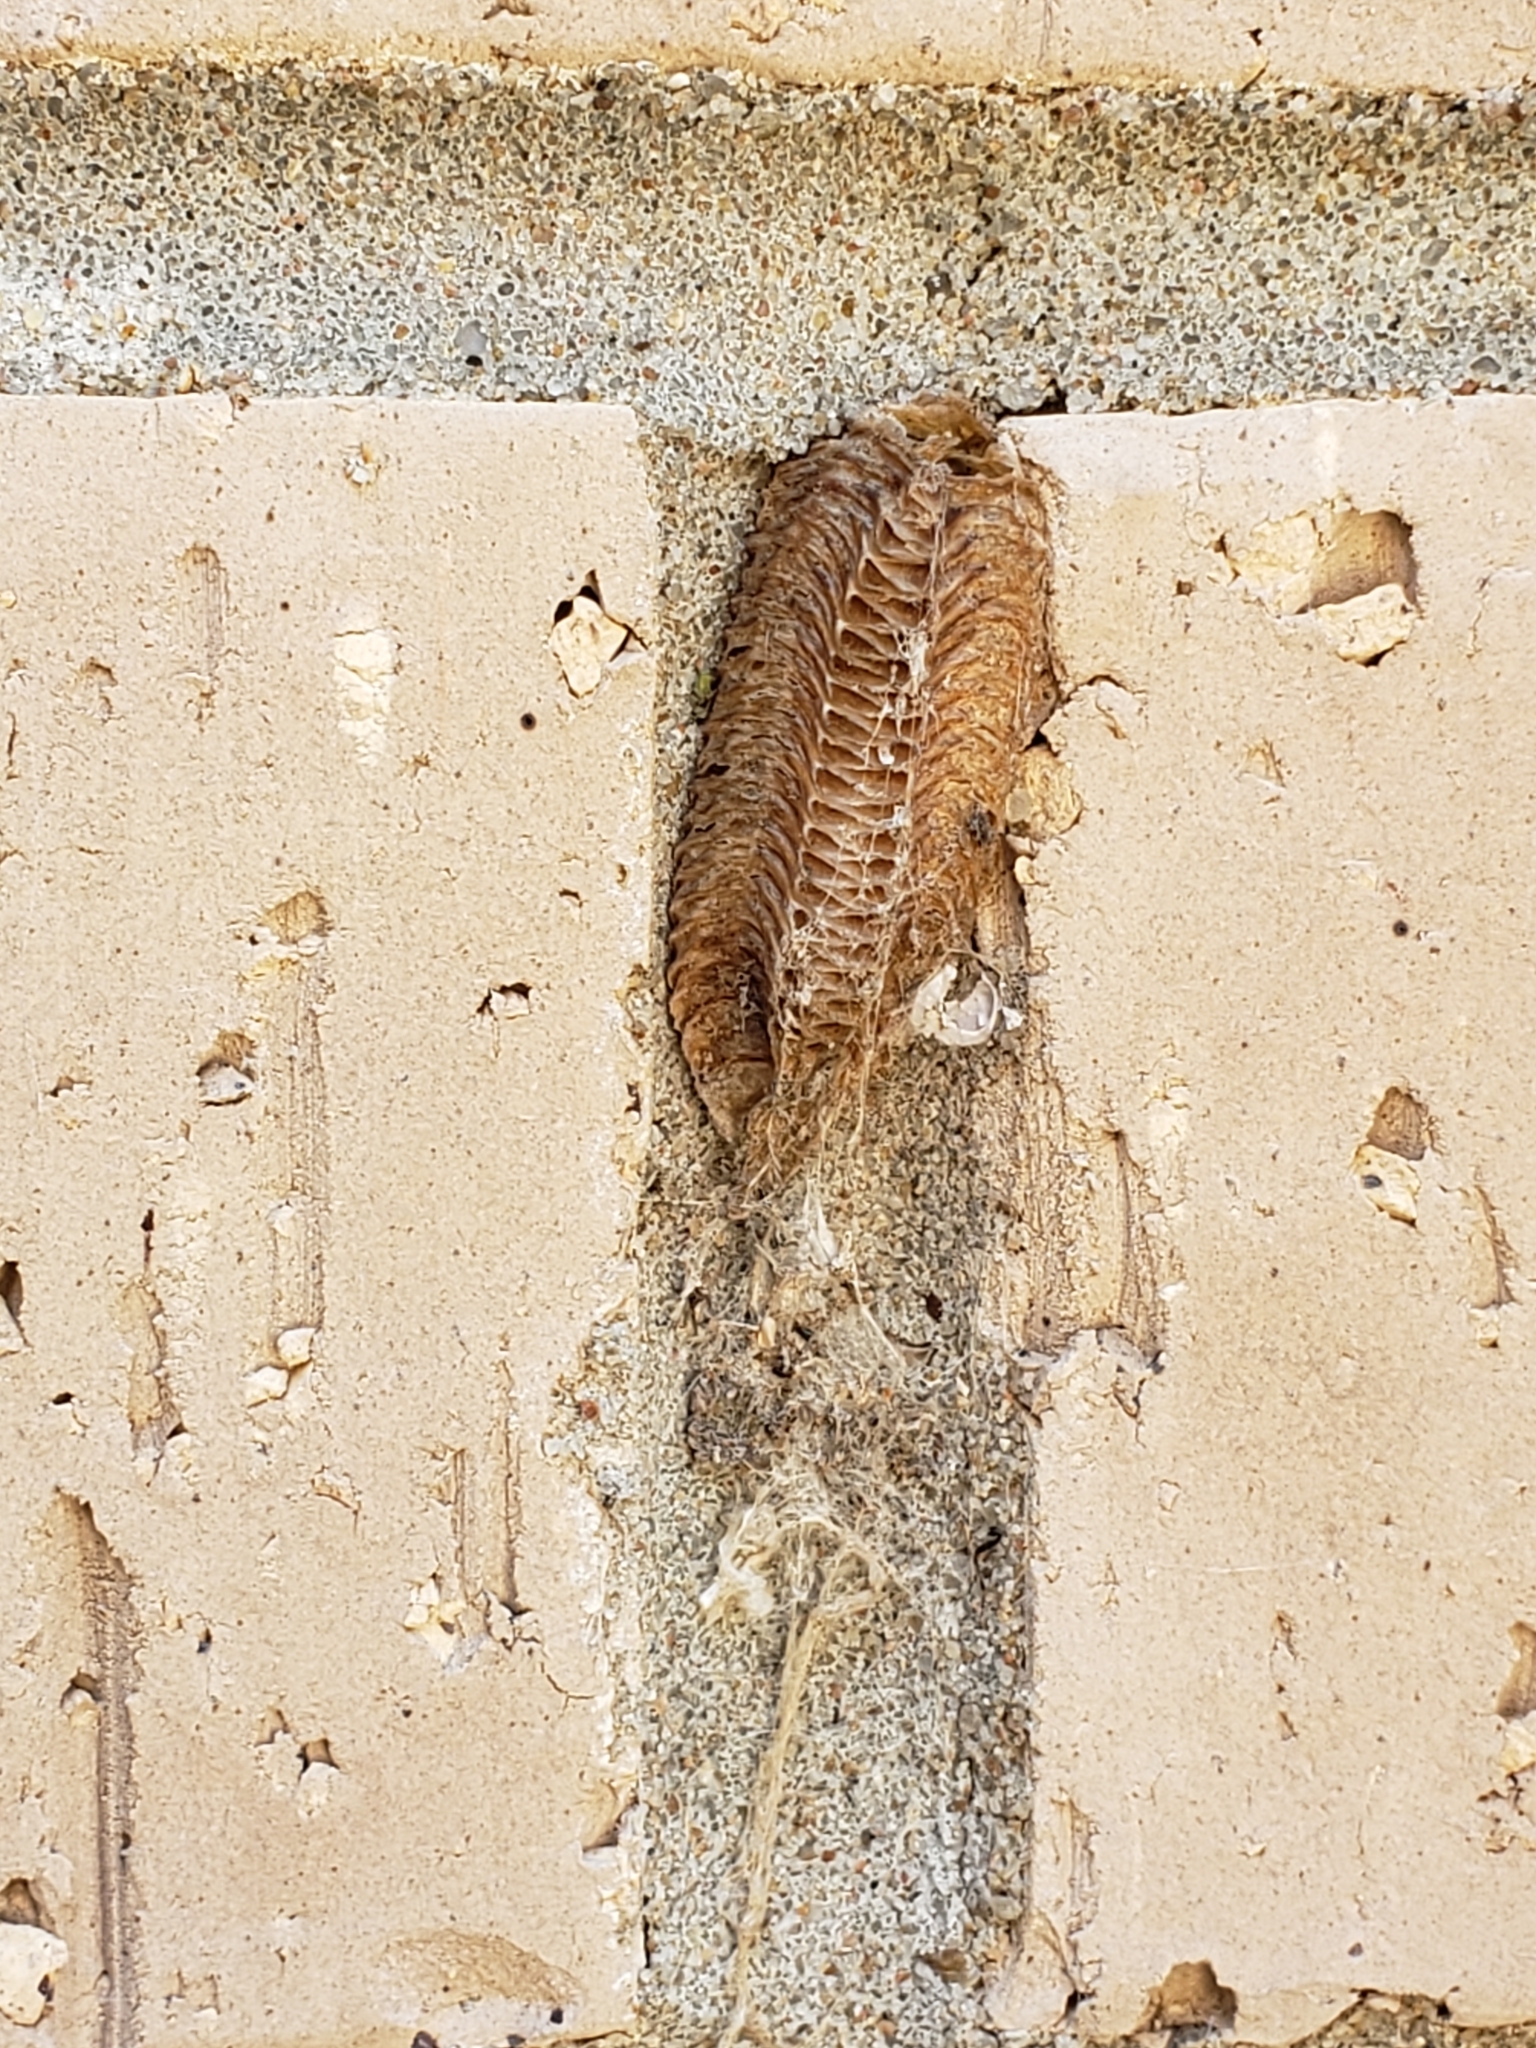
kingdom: Animalia
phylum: Arthropoda
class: Insecta
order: Mantodea
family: Mantidae
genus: Stagmomantis
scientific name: Stagmomantis carolina
